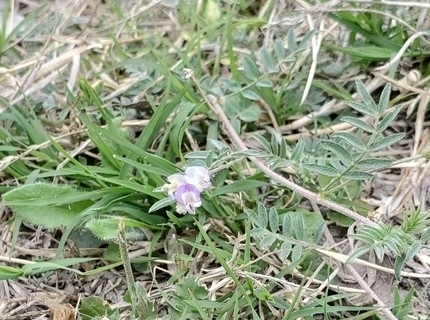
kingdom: Plantae
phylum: Tracheophyta
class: Magnoliopsida
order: Fabales
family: Fabaceae
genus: Astragalus
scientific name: Astragalus nuttallianus
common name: Smallflowered milkvetch
